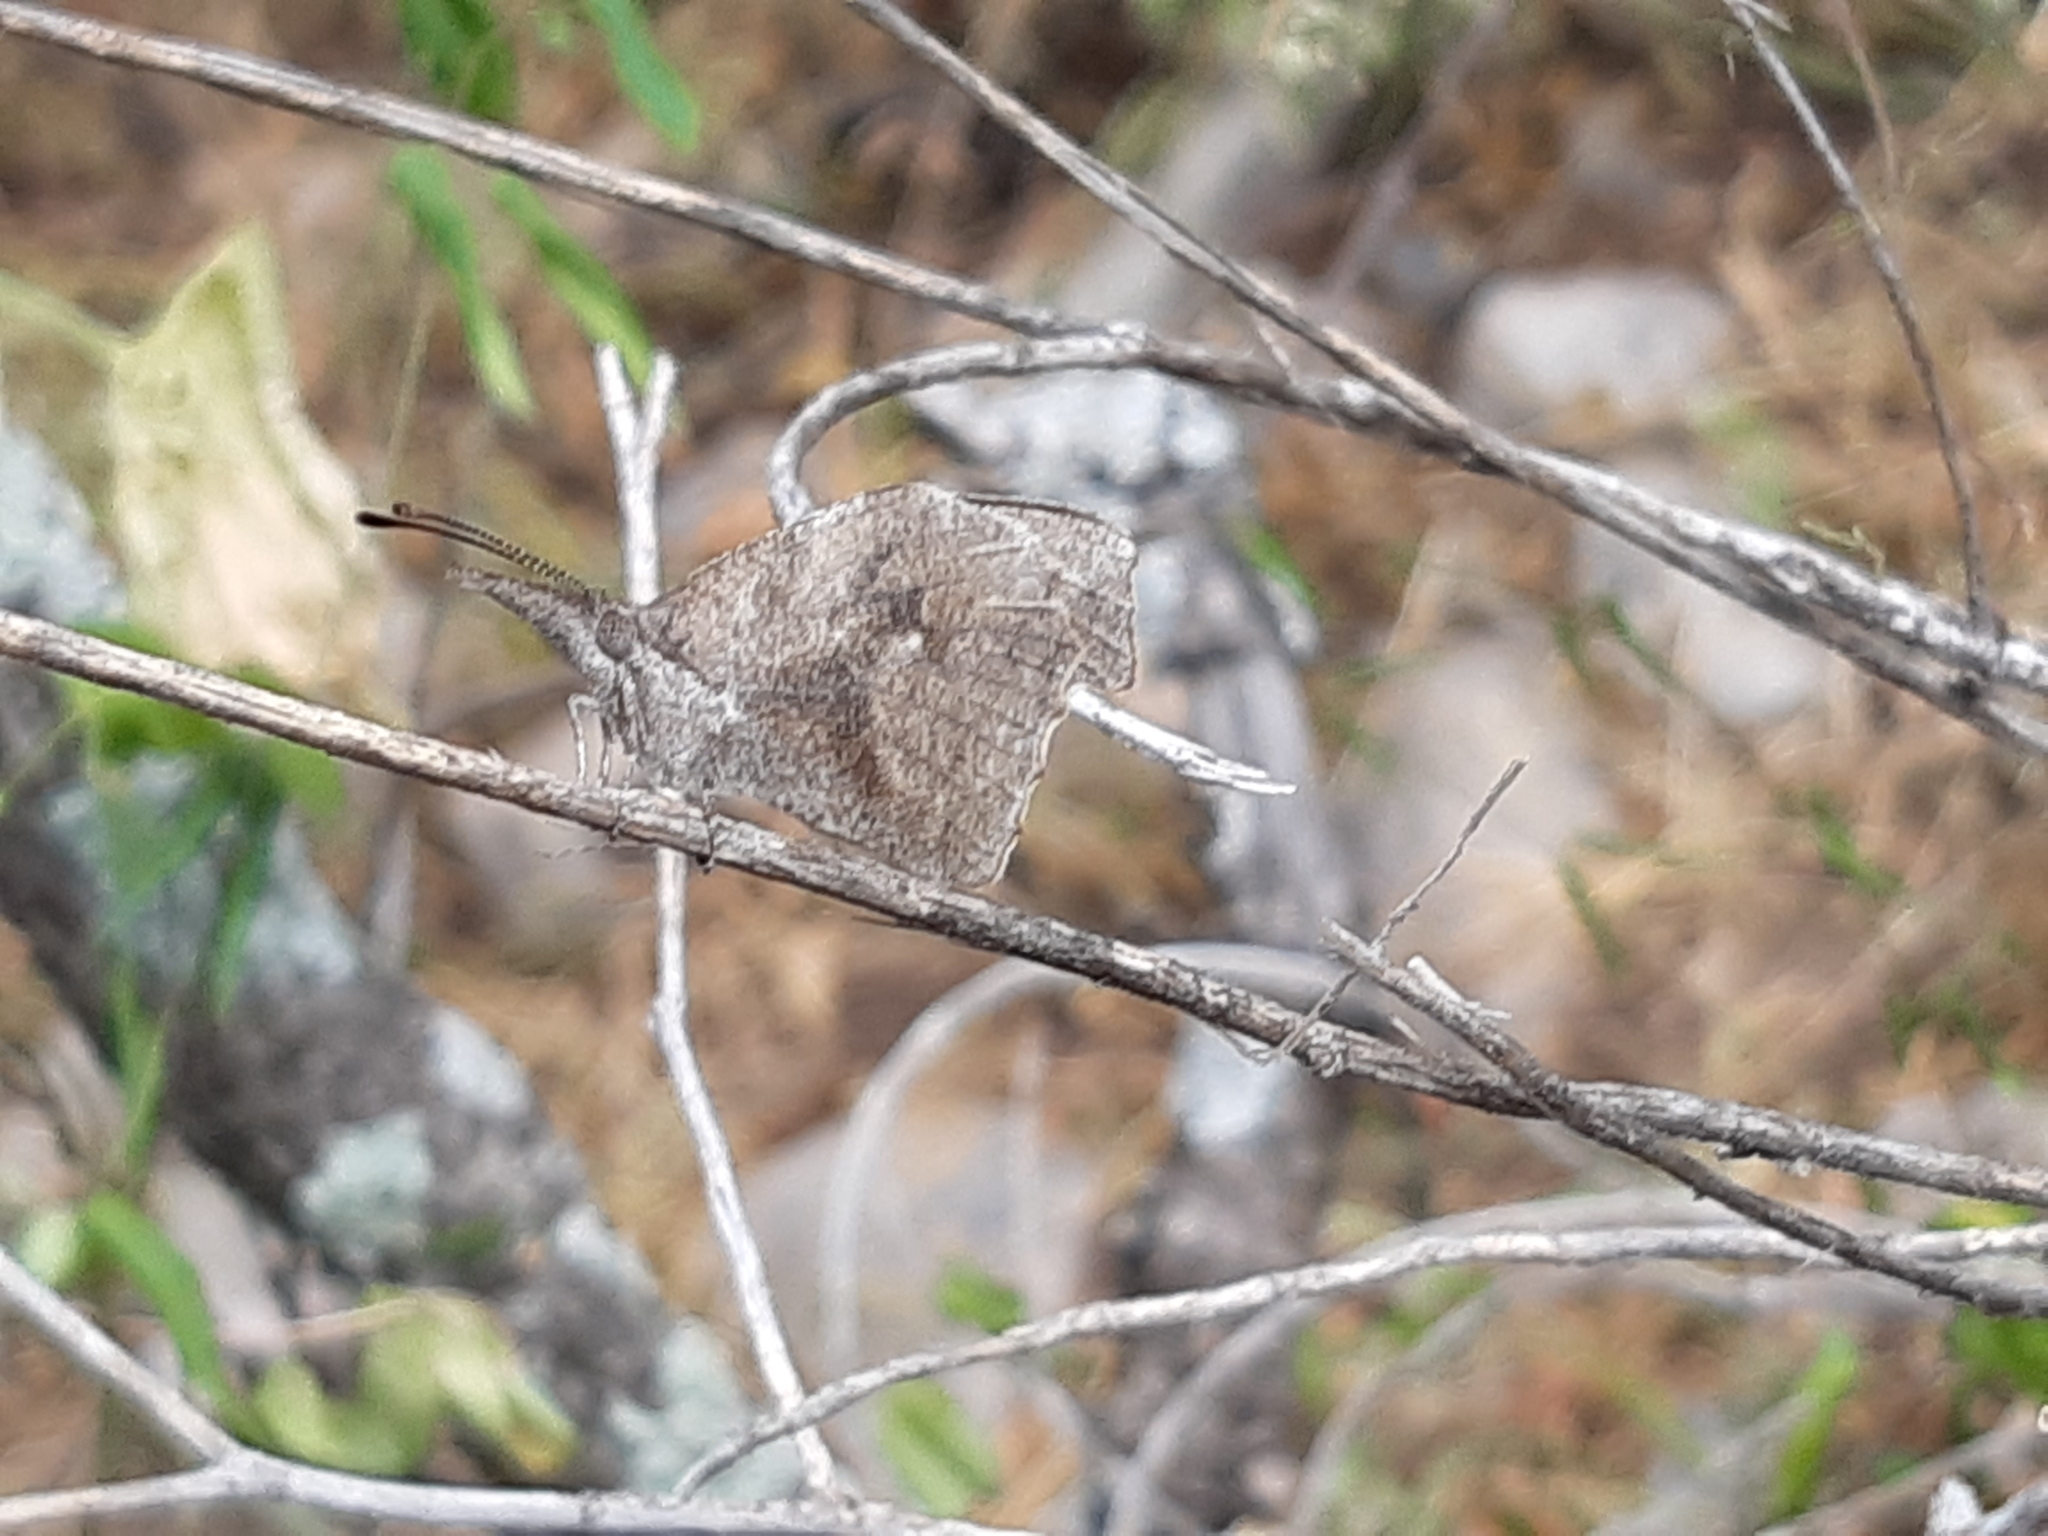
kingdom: Animalia
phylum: Arthropoda
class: Insecta
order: Lepidoptera
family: Nymphalidae
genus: Libytheana
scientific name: Libytheana carinenta
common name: American snout
